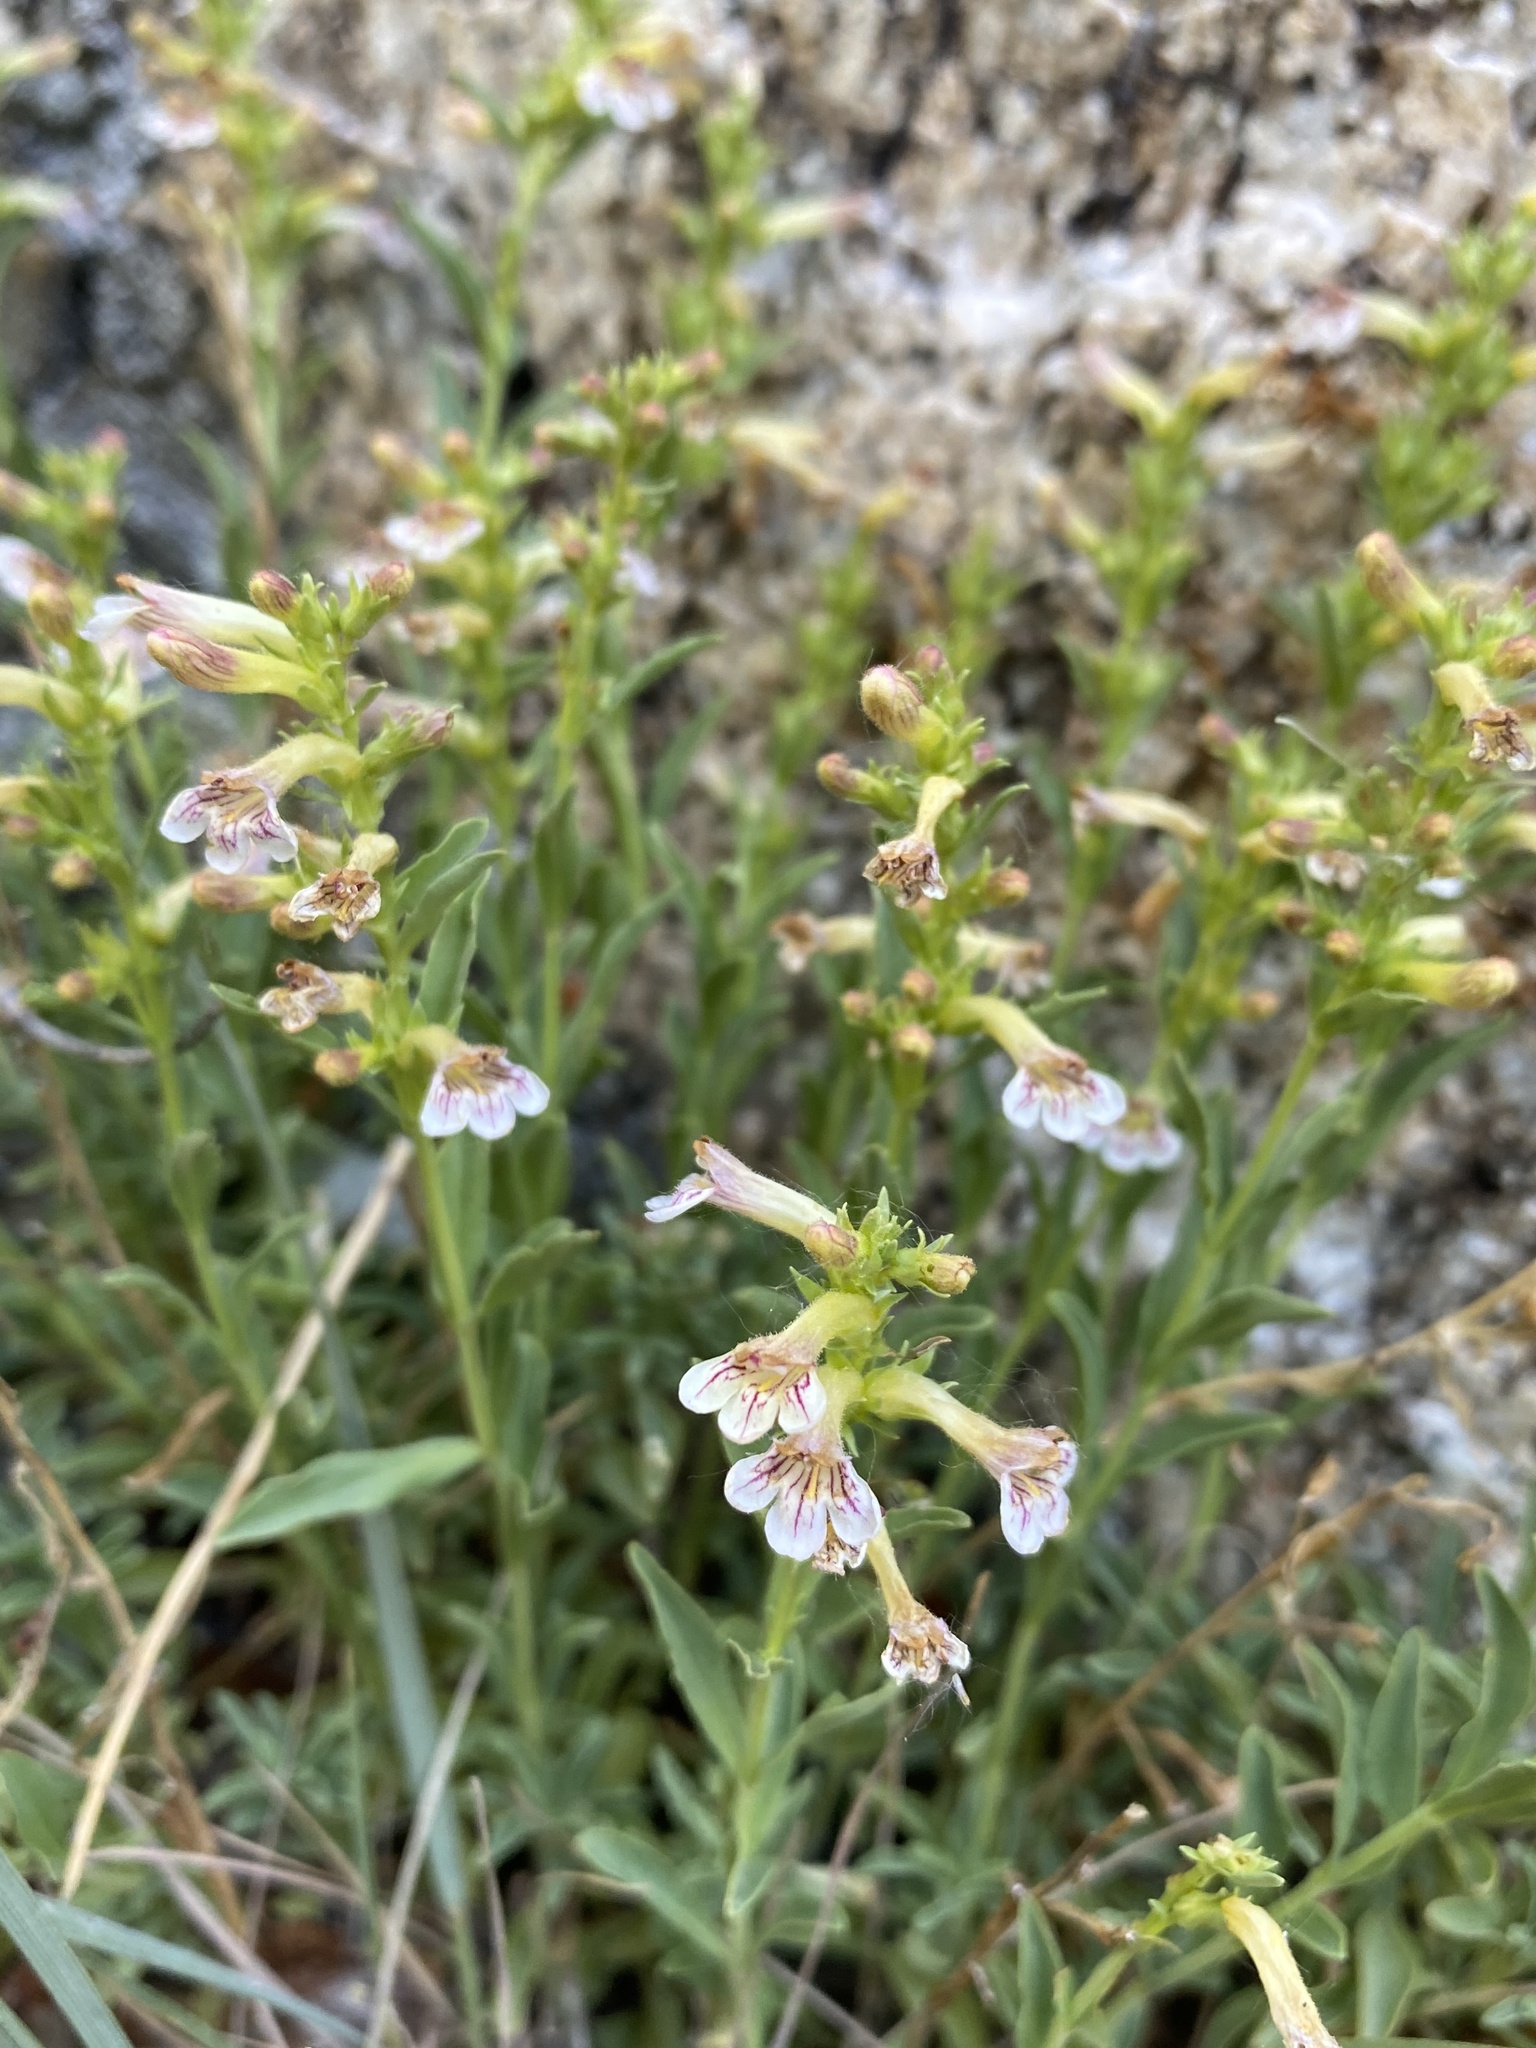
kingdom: Plantae
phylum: Tracheophyta
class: Magnoliopsida
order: Lamiales
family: Plantaginaceae
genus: Penstemon
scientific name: Penstemon deustus
